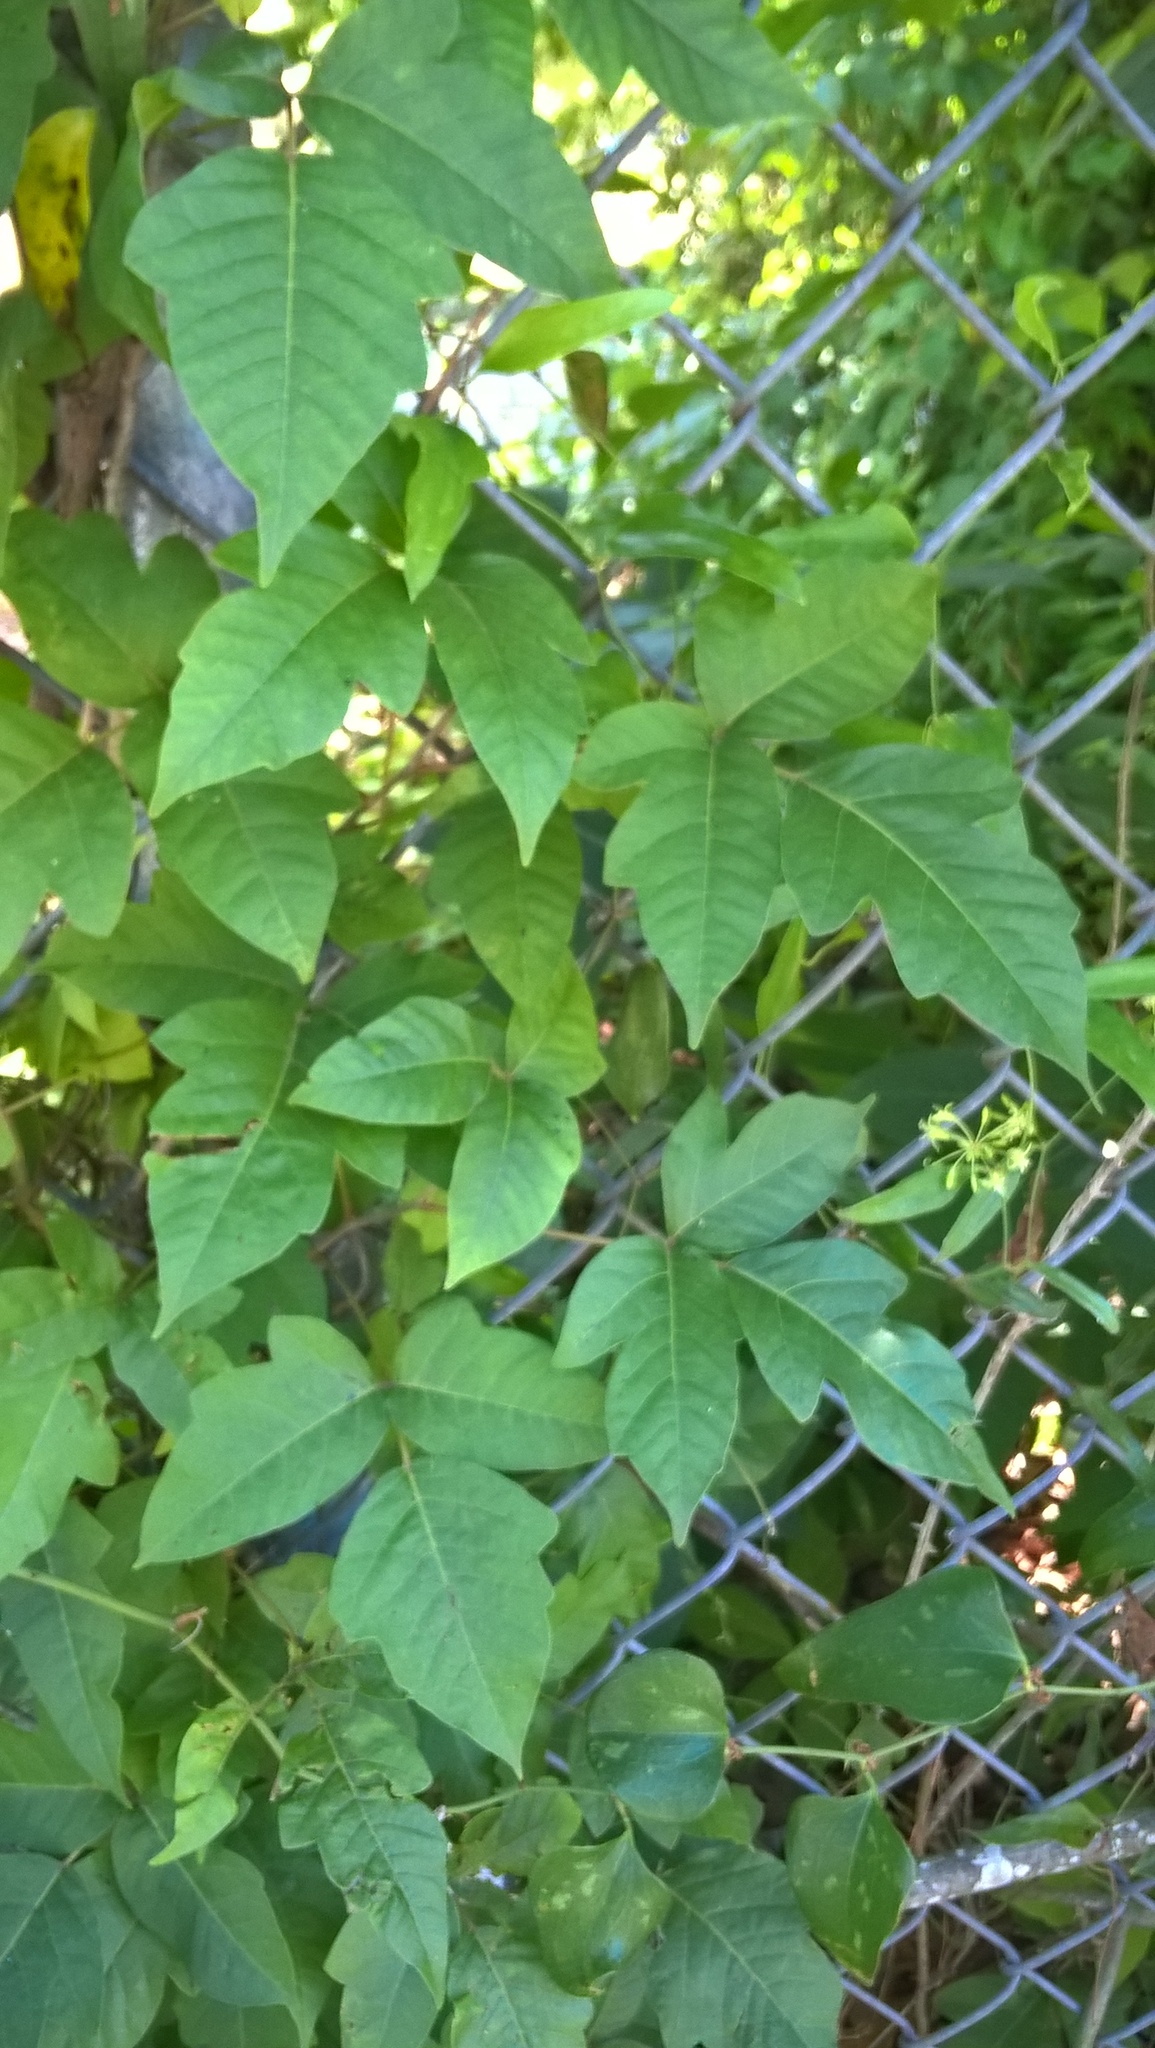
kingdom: Plantae
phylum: Tracheophyta
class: Magnoliopsida
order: Sapindales
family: Anacardiaceae
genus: Toxicodendron
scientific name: Toxicodendron radicans
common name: Poison ivy
